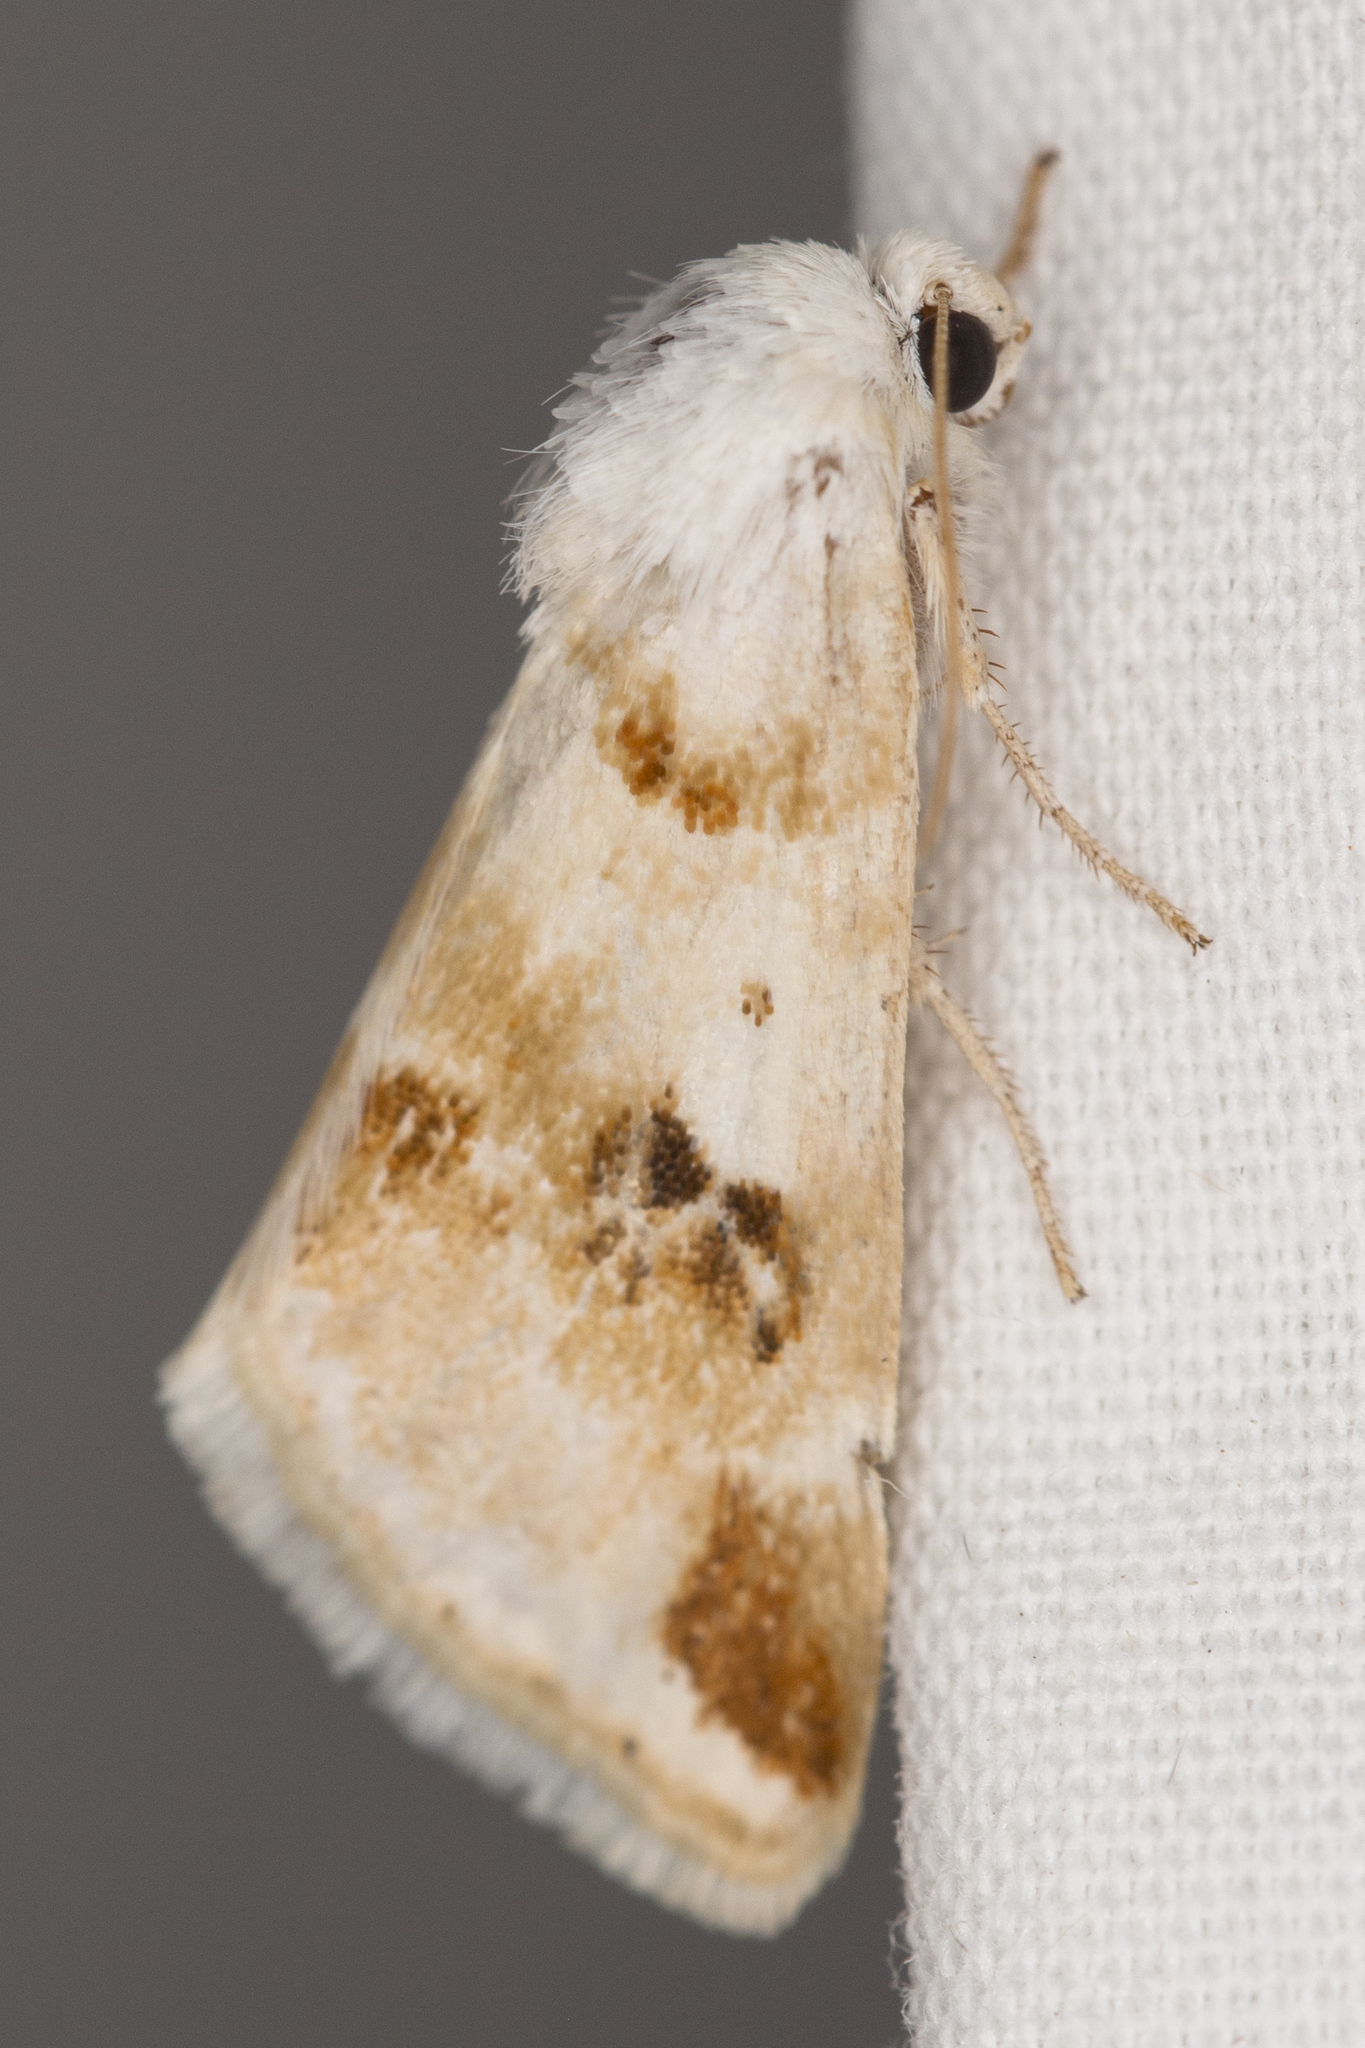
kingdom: Animalia
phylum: Arthropoda
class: Insecta
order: Lepidoptera
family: Noctuidae
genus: Schinia
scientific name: Schinia unimacula
